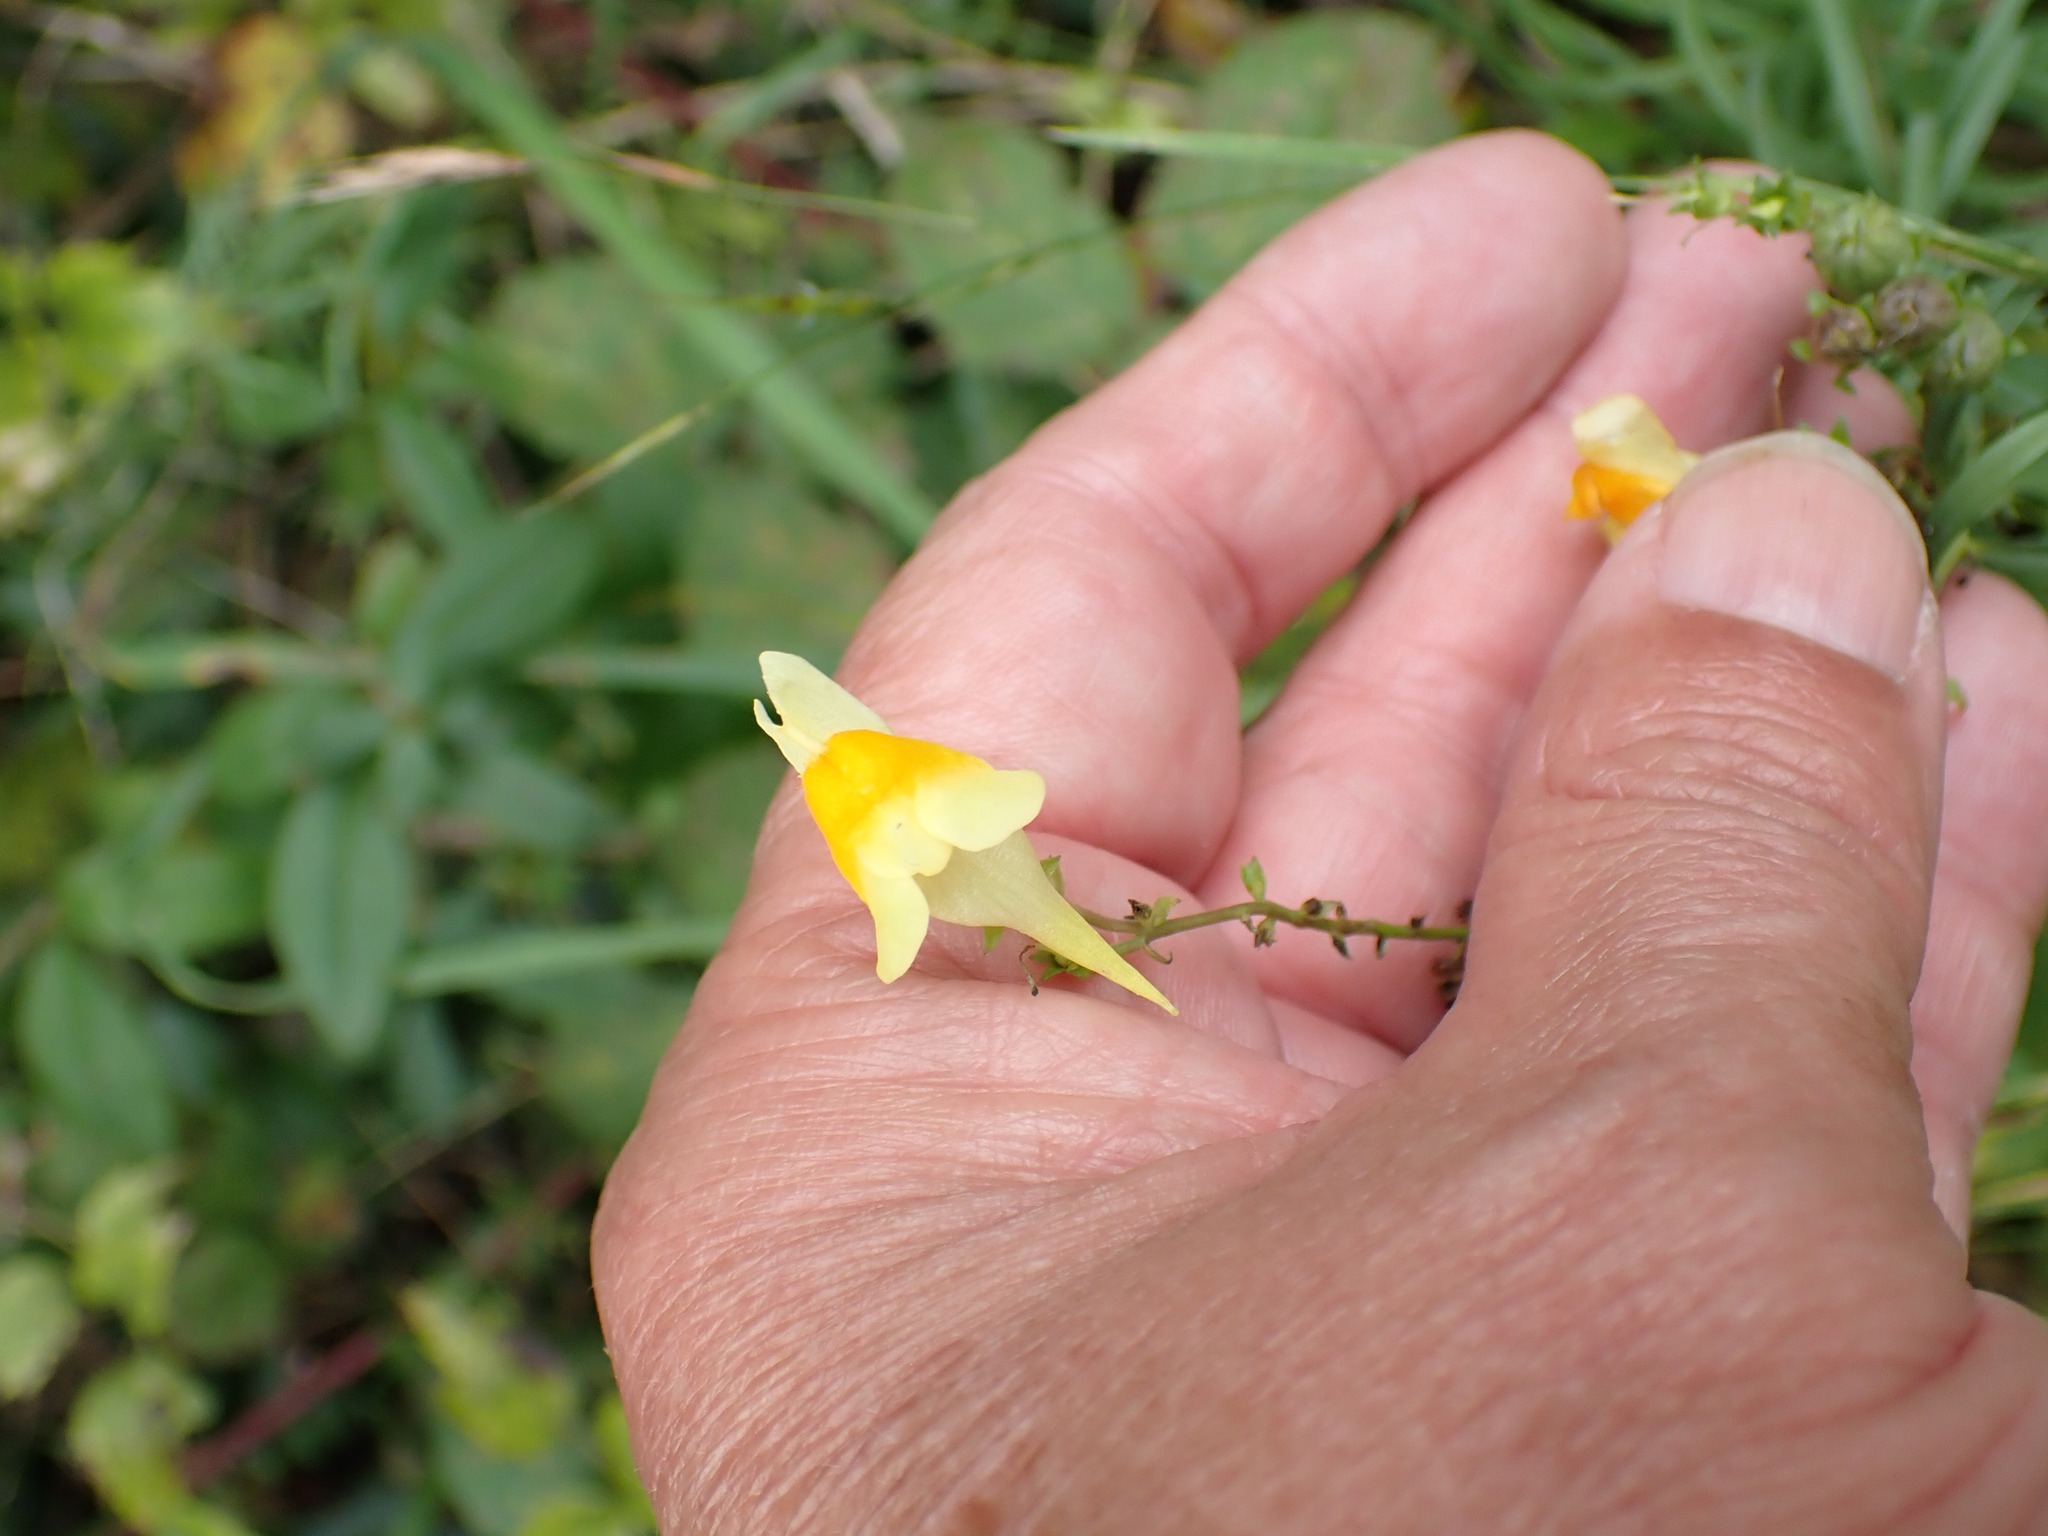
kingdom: Plantae
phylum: Tracheophyta
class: Magnoliopsida
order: Lamiales
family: Plantaginaceae
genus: Linaria
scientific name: Linaria vulgaris
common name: Butter and eggs
